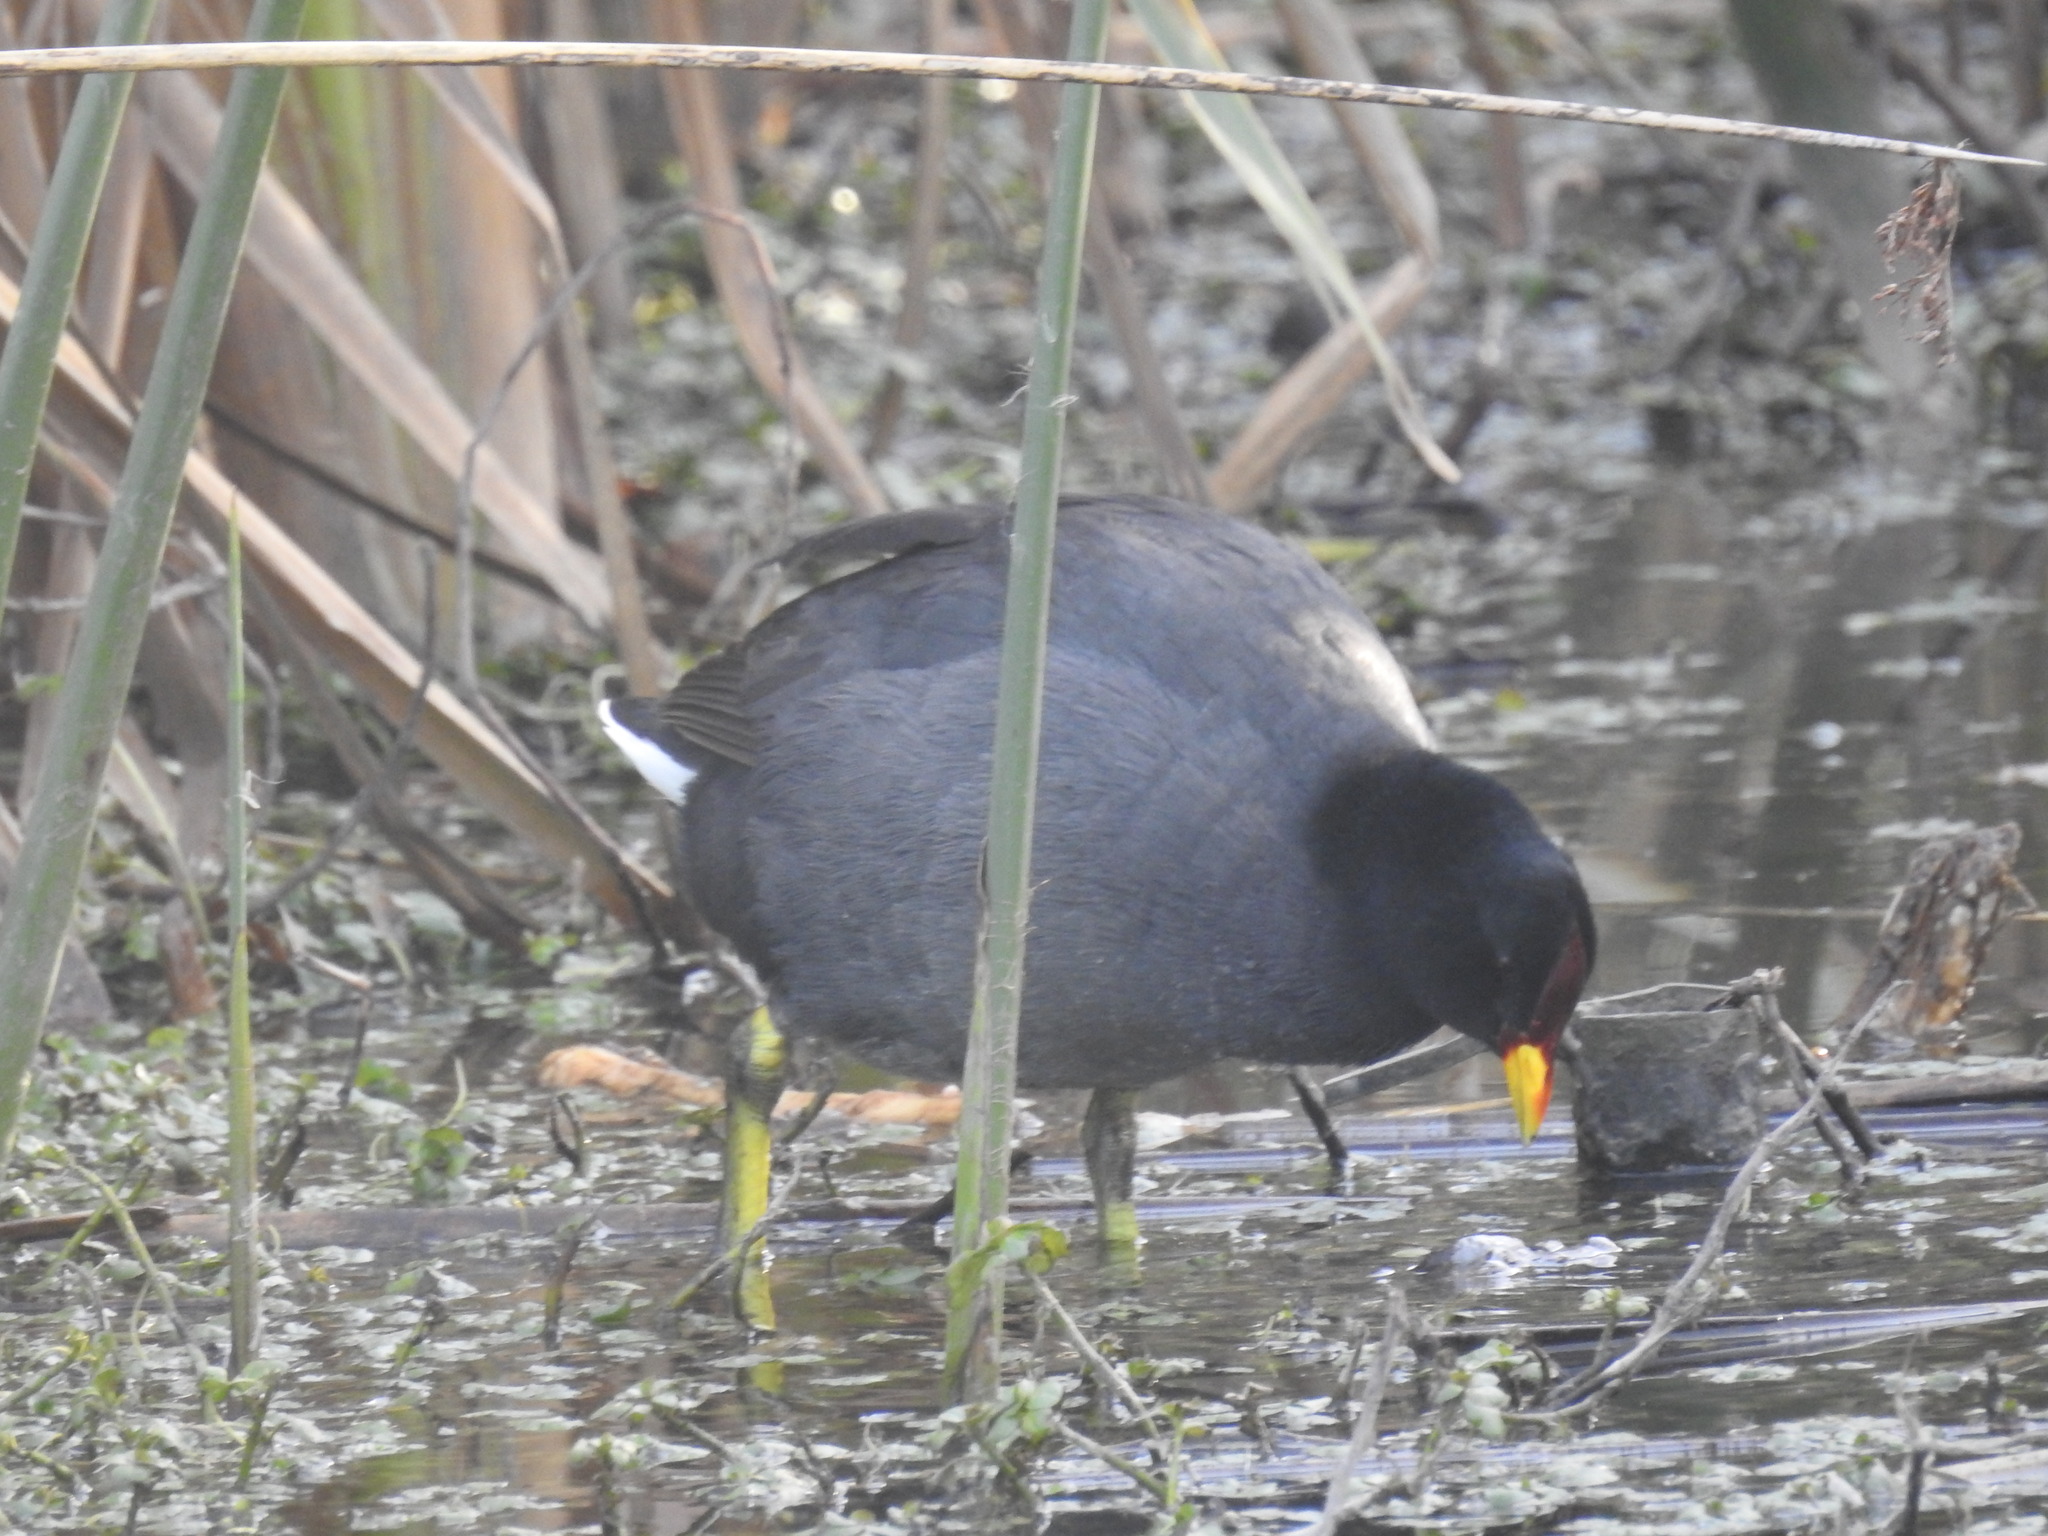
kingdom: Animalia
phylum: Chordata
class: Aves
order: Gruiformes
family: Rallidae
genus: Fulica
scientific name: Fulica rufifrons
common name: Red-fronted coot
